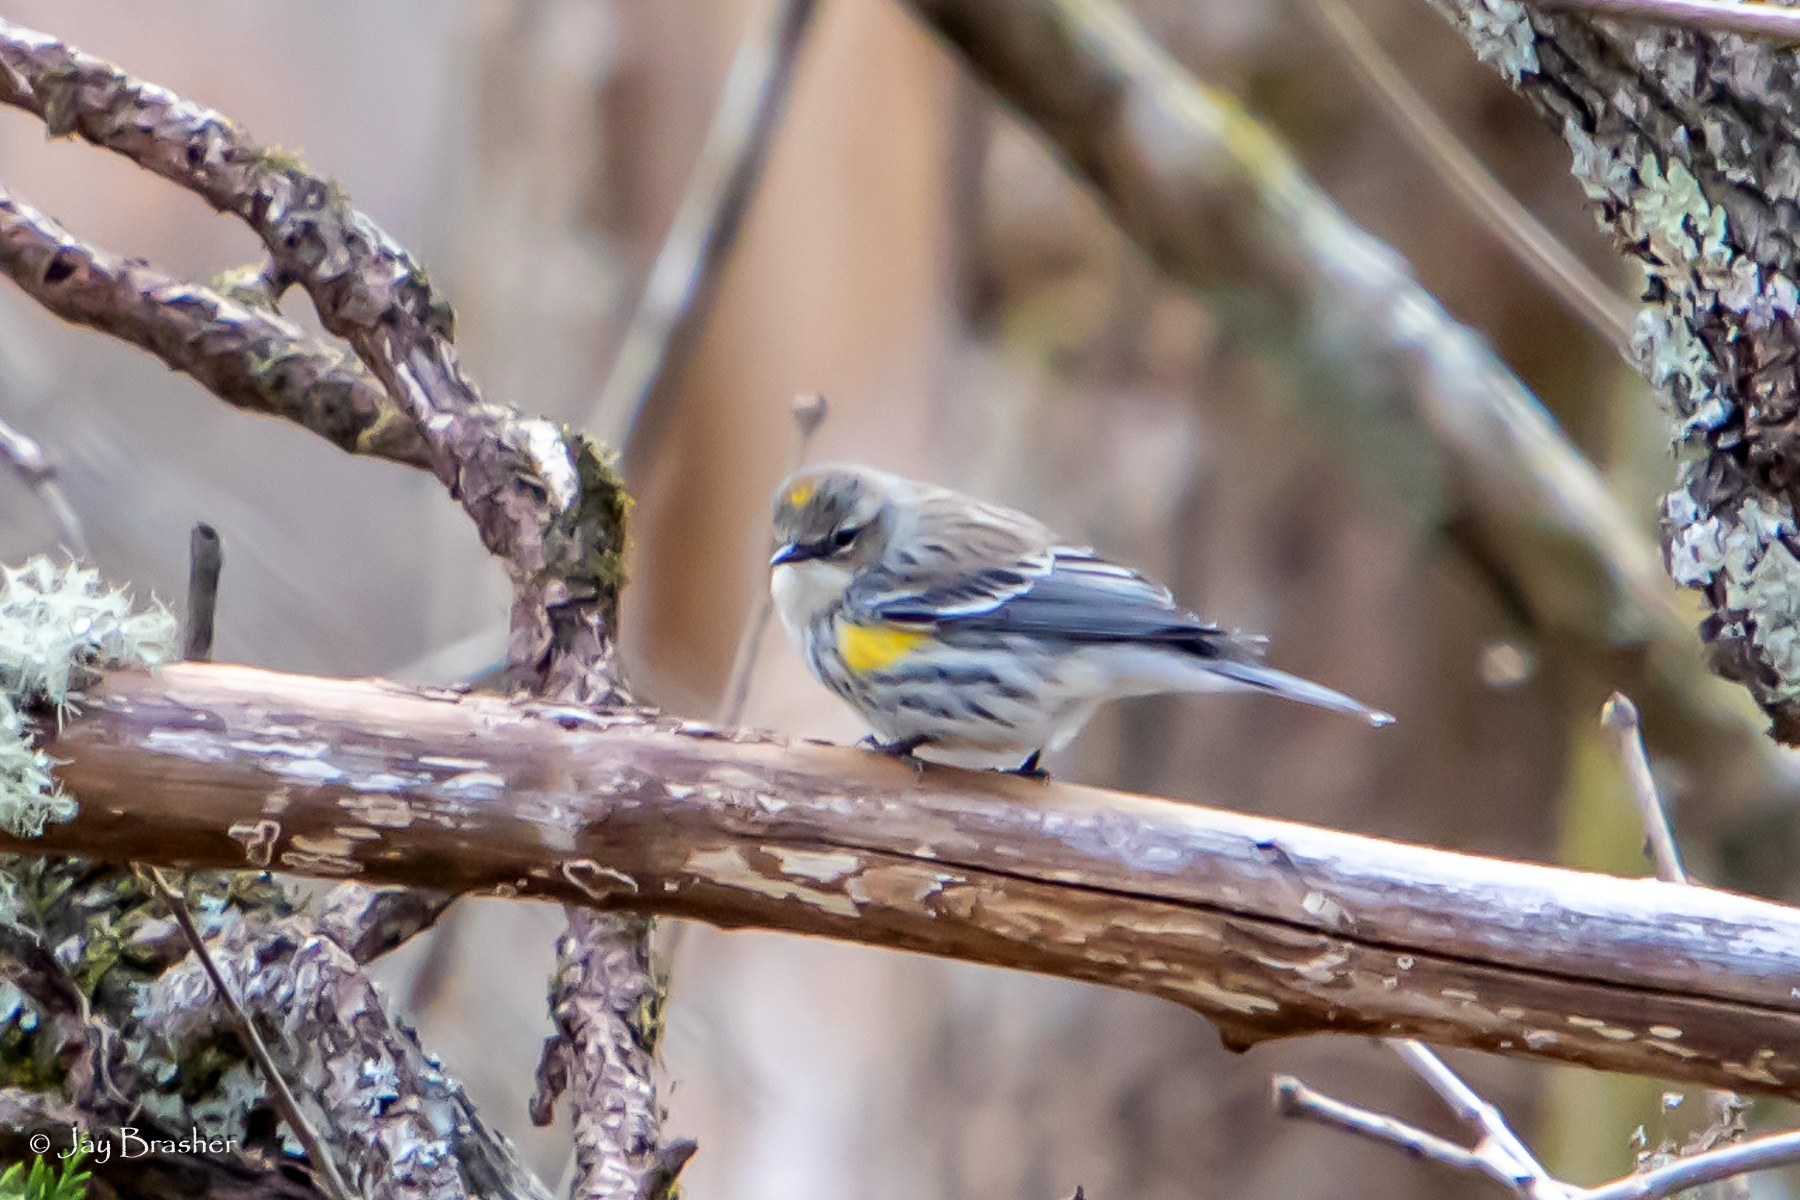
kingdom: Animalia
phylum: Chordata
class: Aves
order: Passeriformes
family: Parulidae
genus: Setophaga
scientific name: Setophaga coronata
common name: Myrtle warbler
